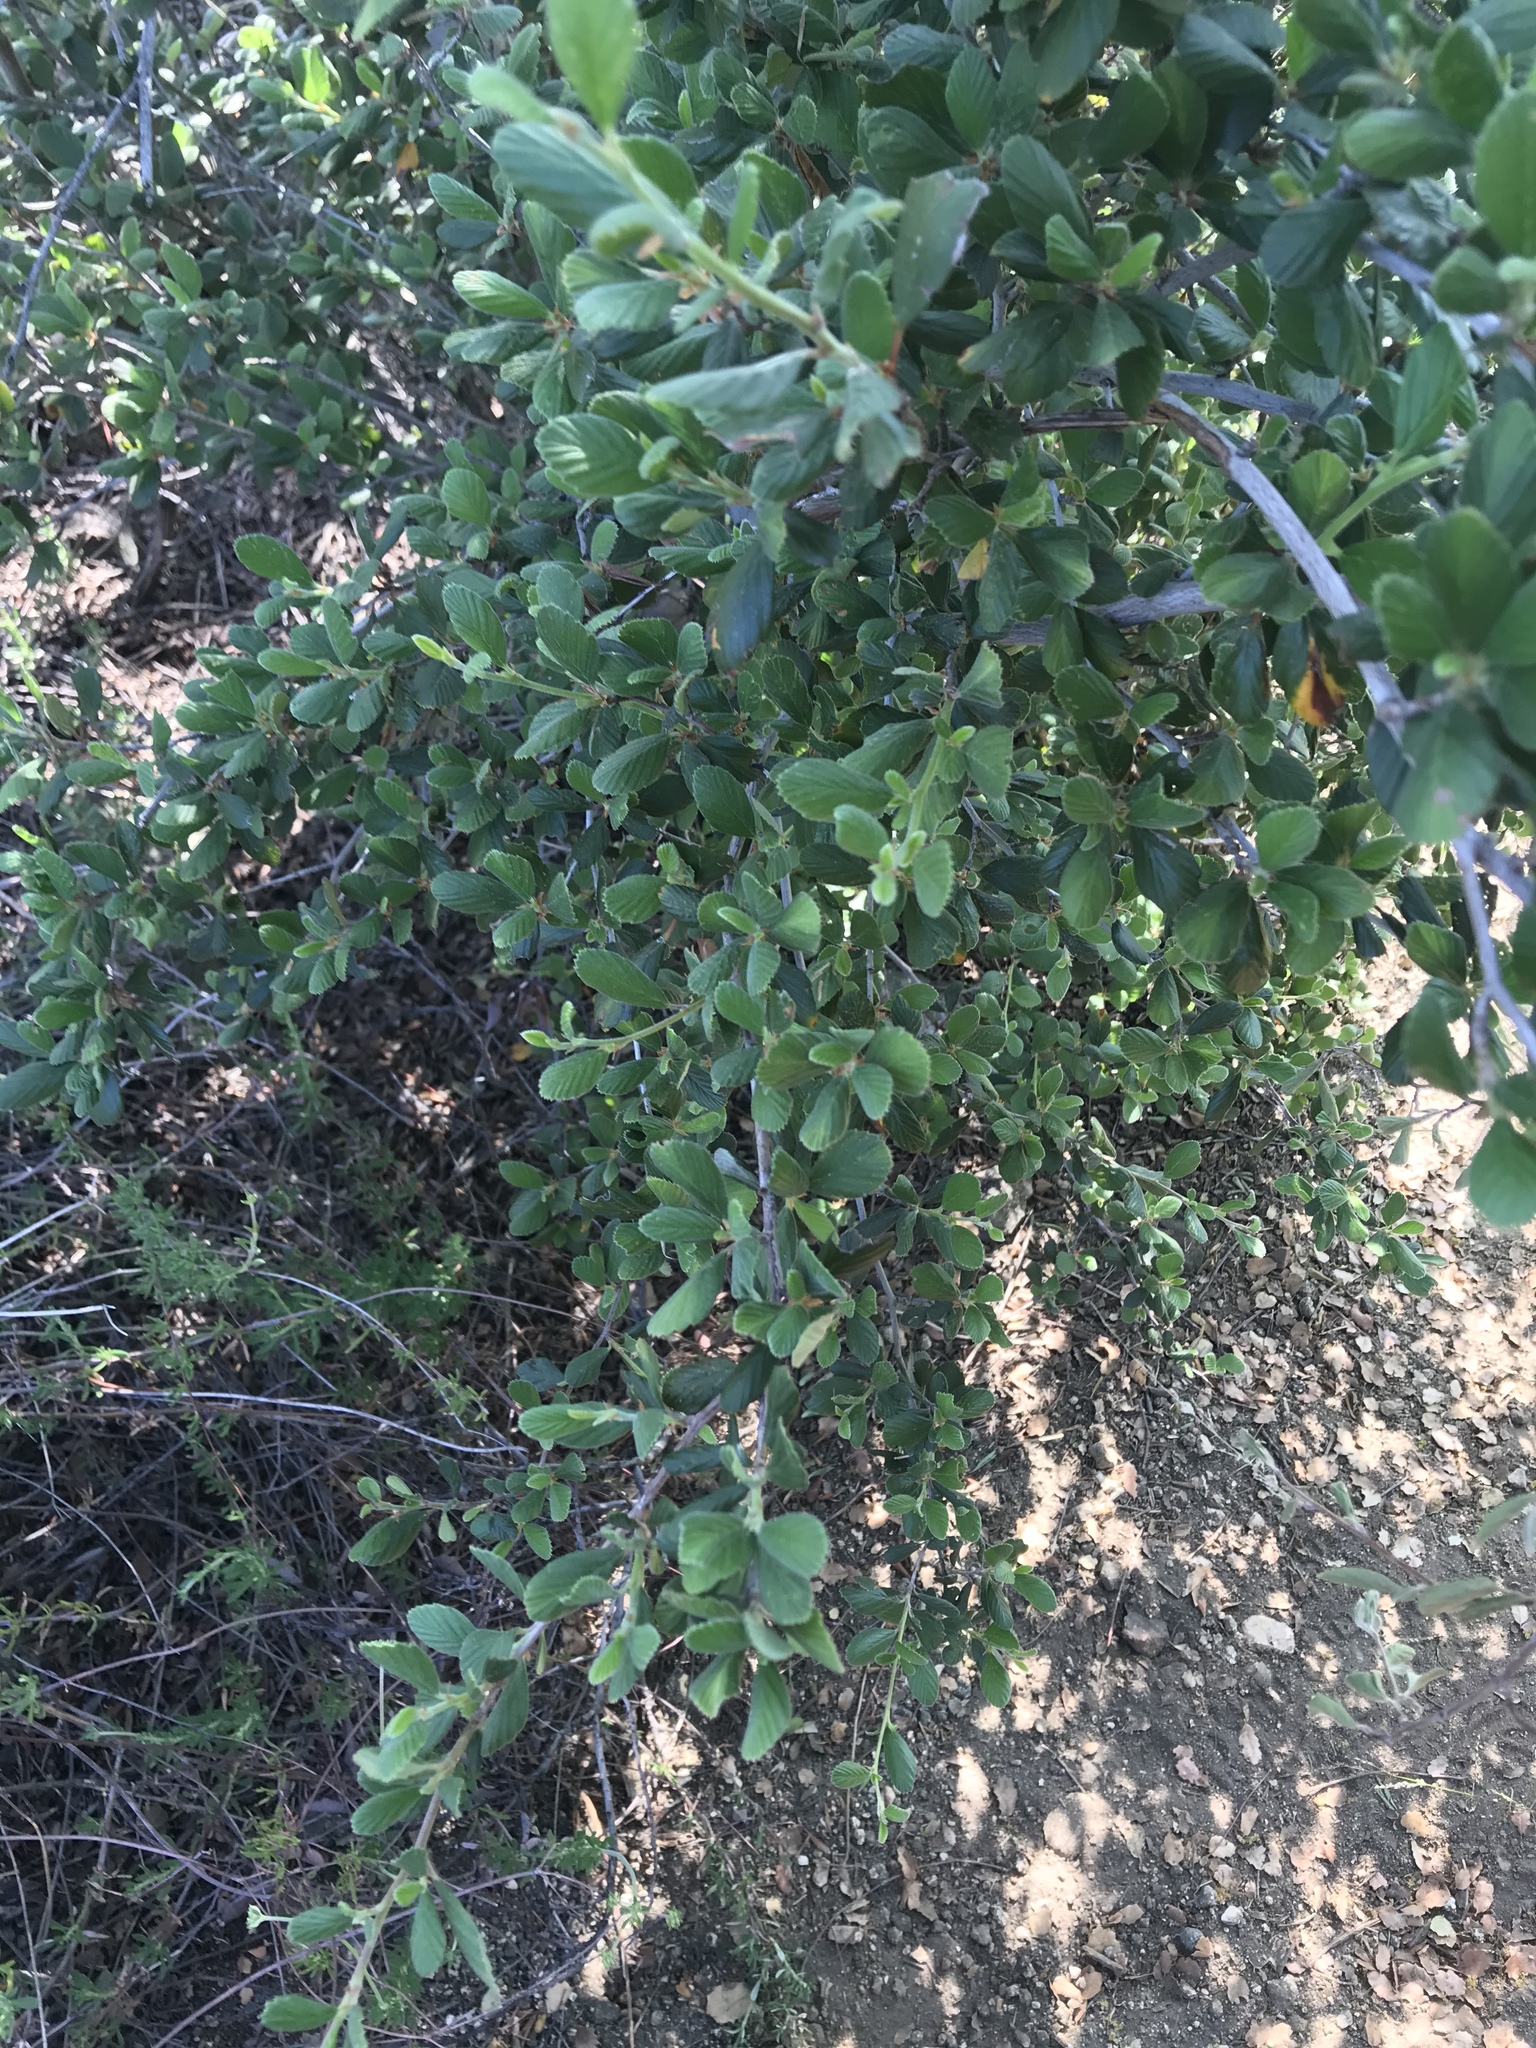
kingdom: Plantae
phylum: Tracheophyta
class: Magnoliopsida
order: Rosales
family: Rosaceae
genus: Cercocarpus
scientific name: Cercocarpus betuloides
